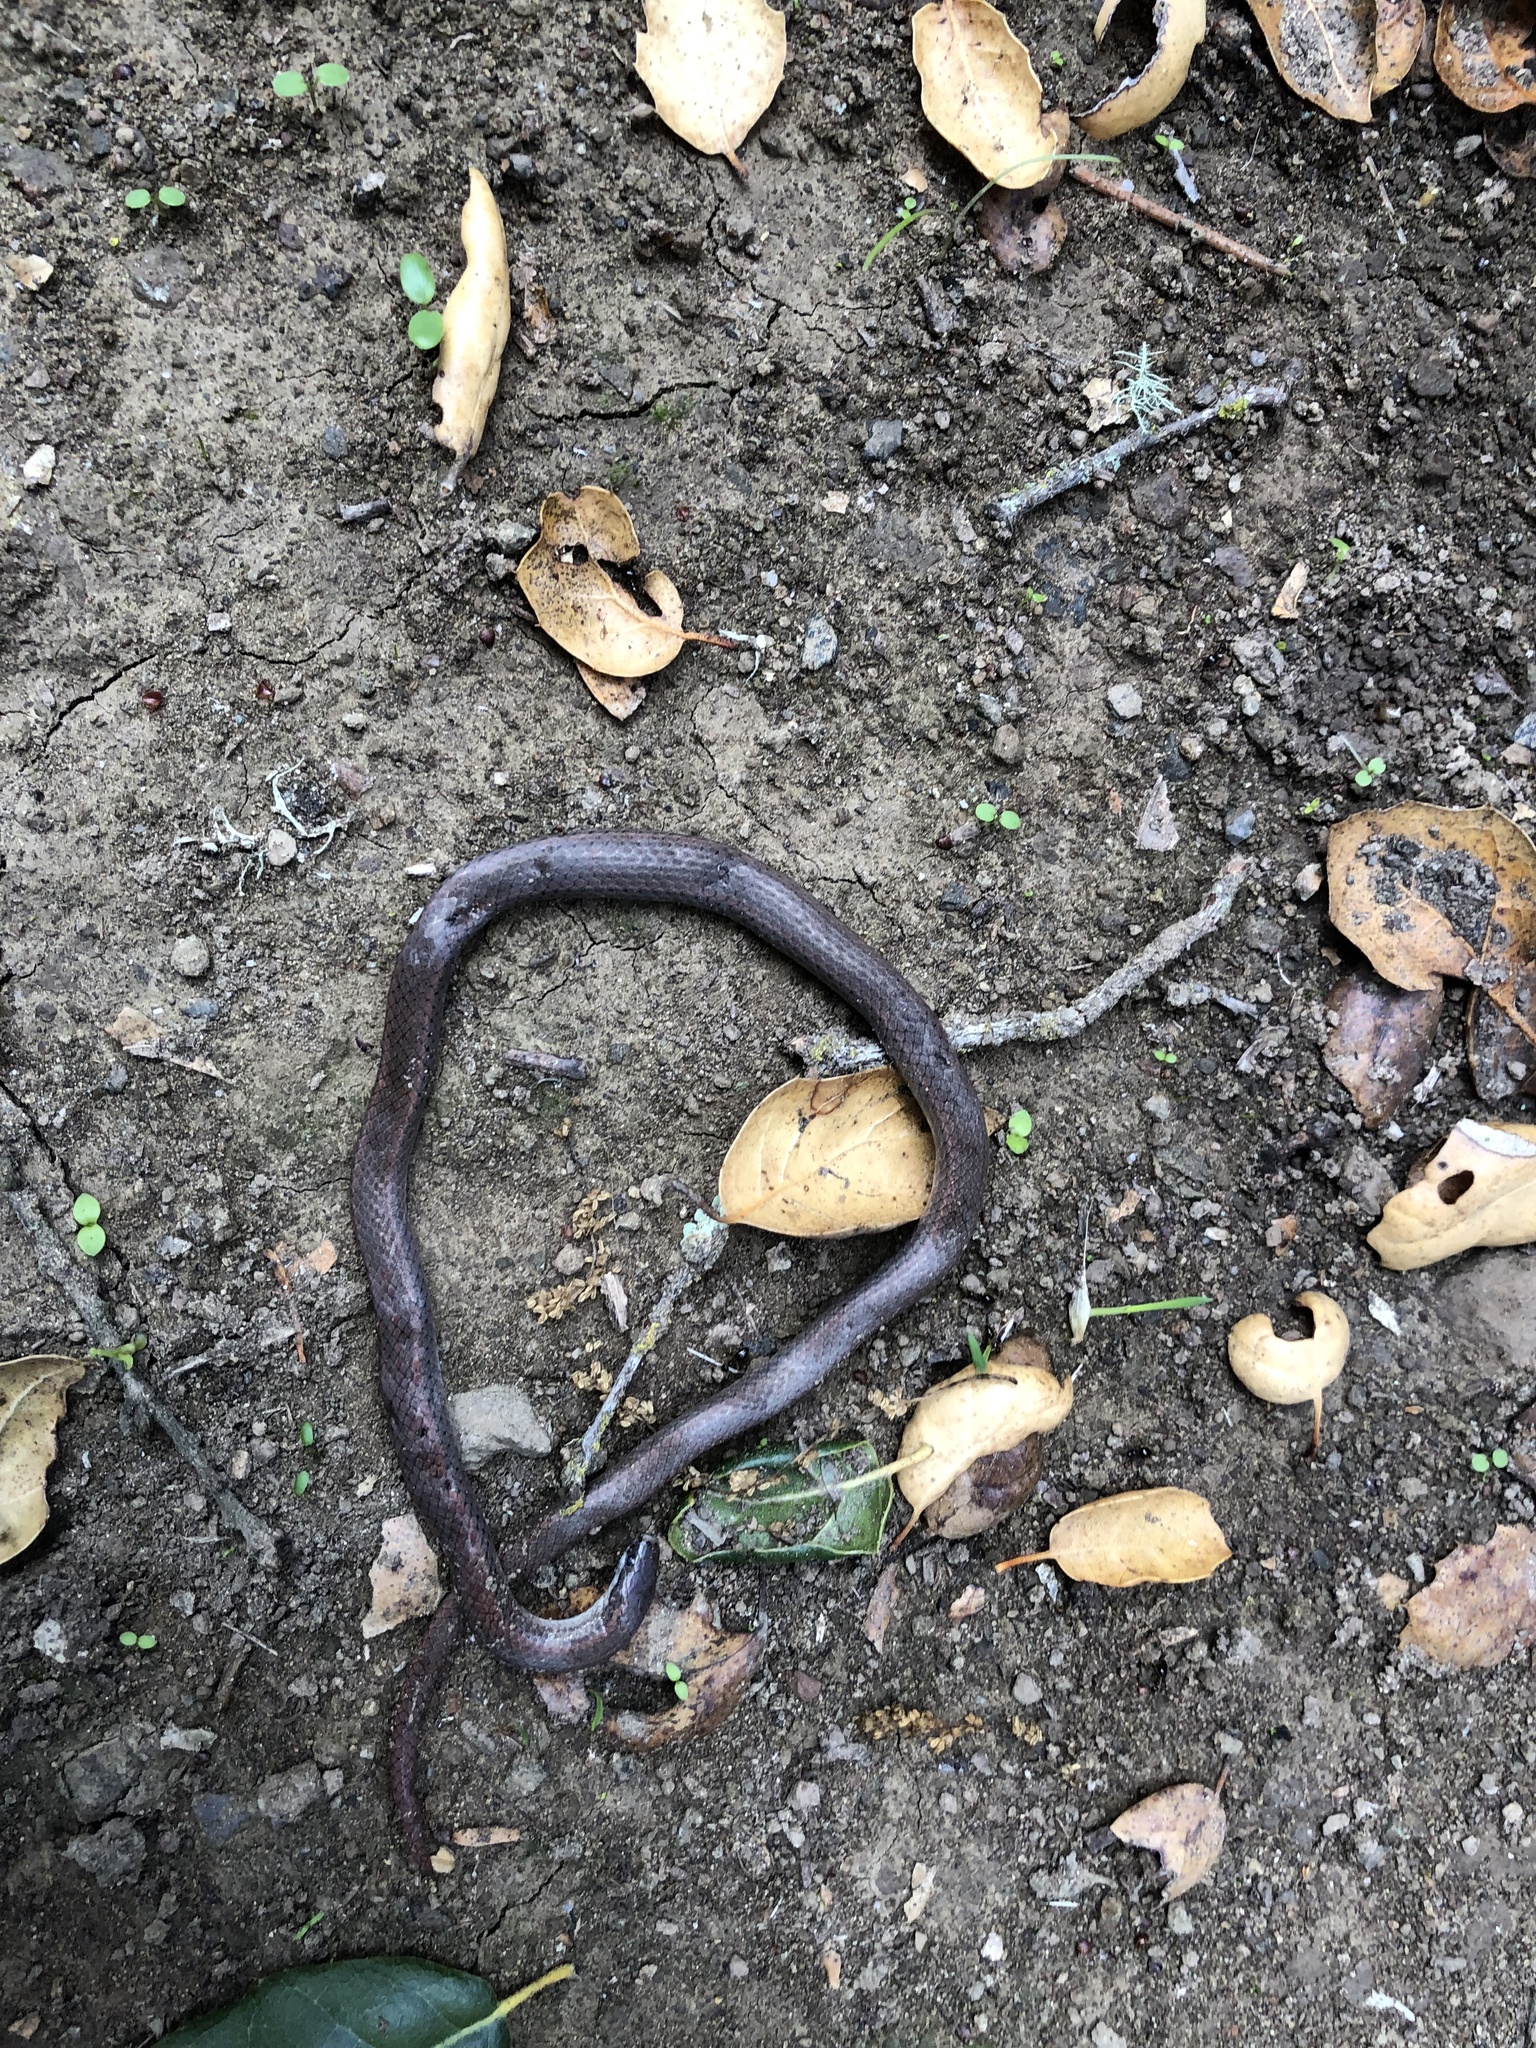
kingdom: Animalia
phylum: Chordata
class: Squamata
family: Colubridae
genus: Contia
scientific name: Contia tenuis
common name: Sharptail snake
